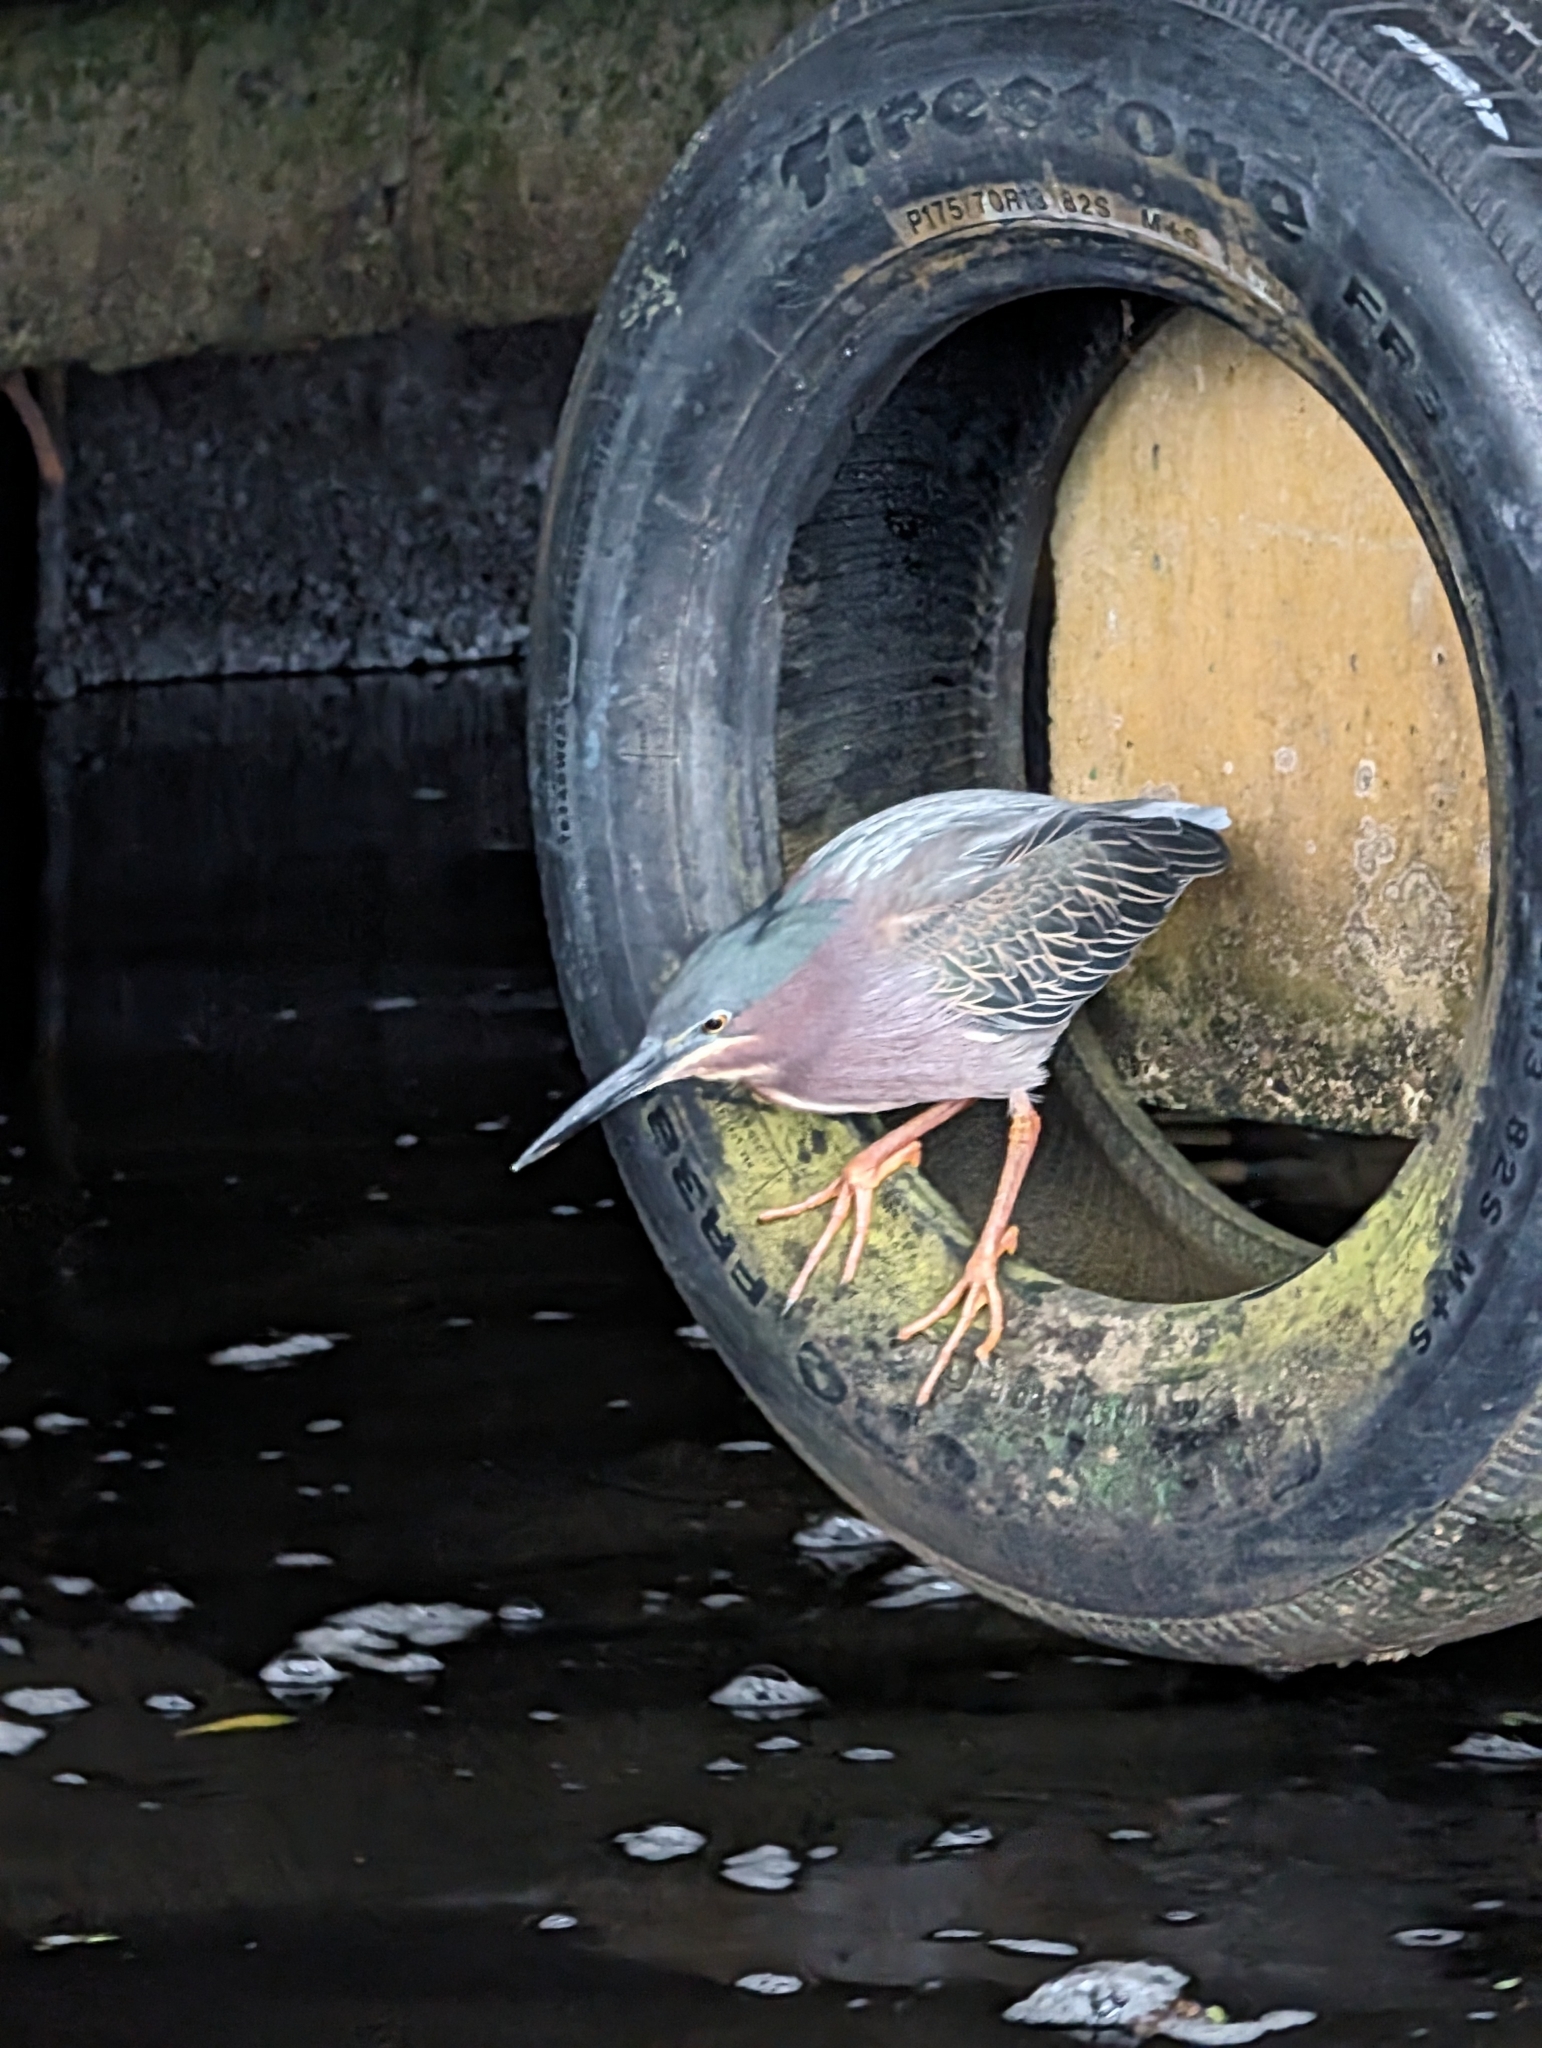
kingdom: Animalia
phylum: Chordata
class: Aves
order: Pelecaniformes
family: Ardeidae
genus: Butorides
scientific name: Butorides virescens
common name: Green heron
